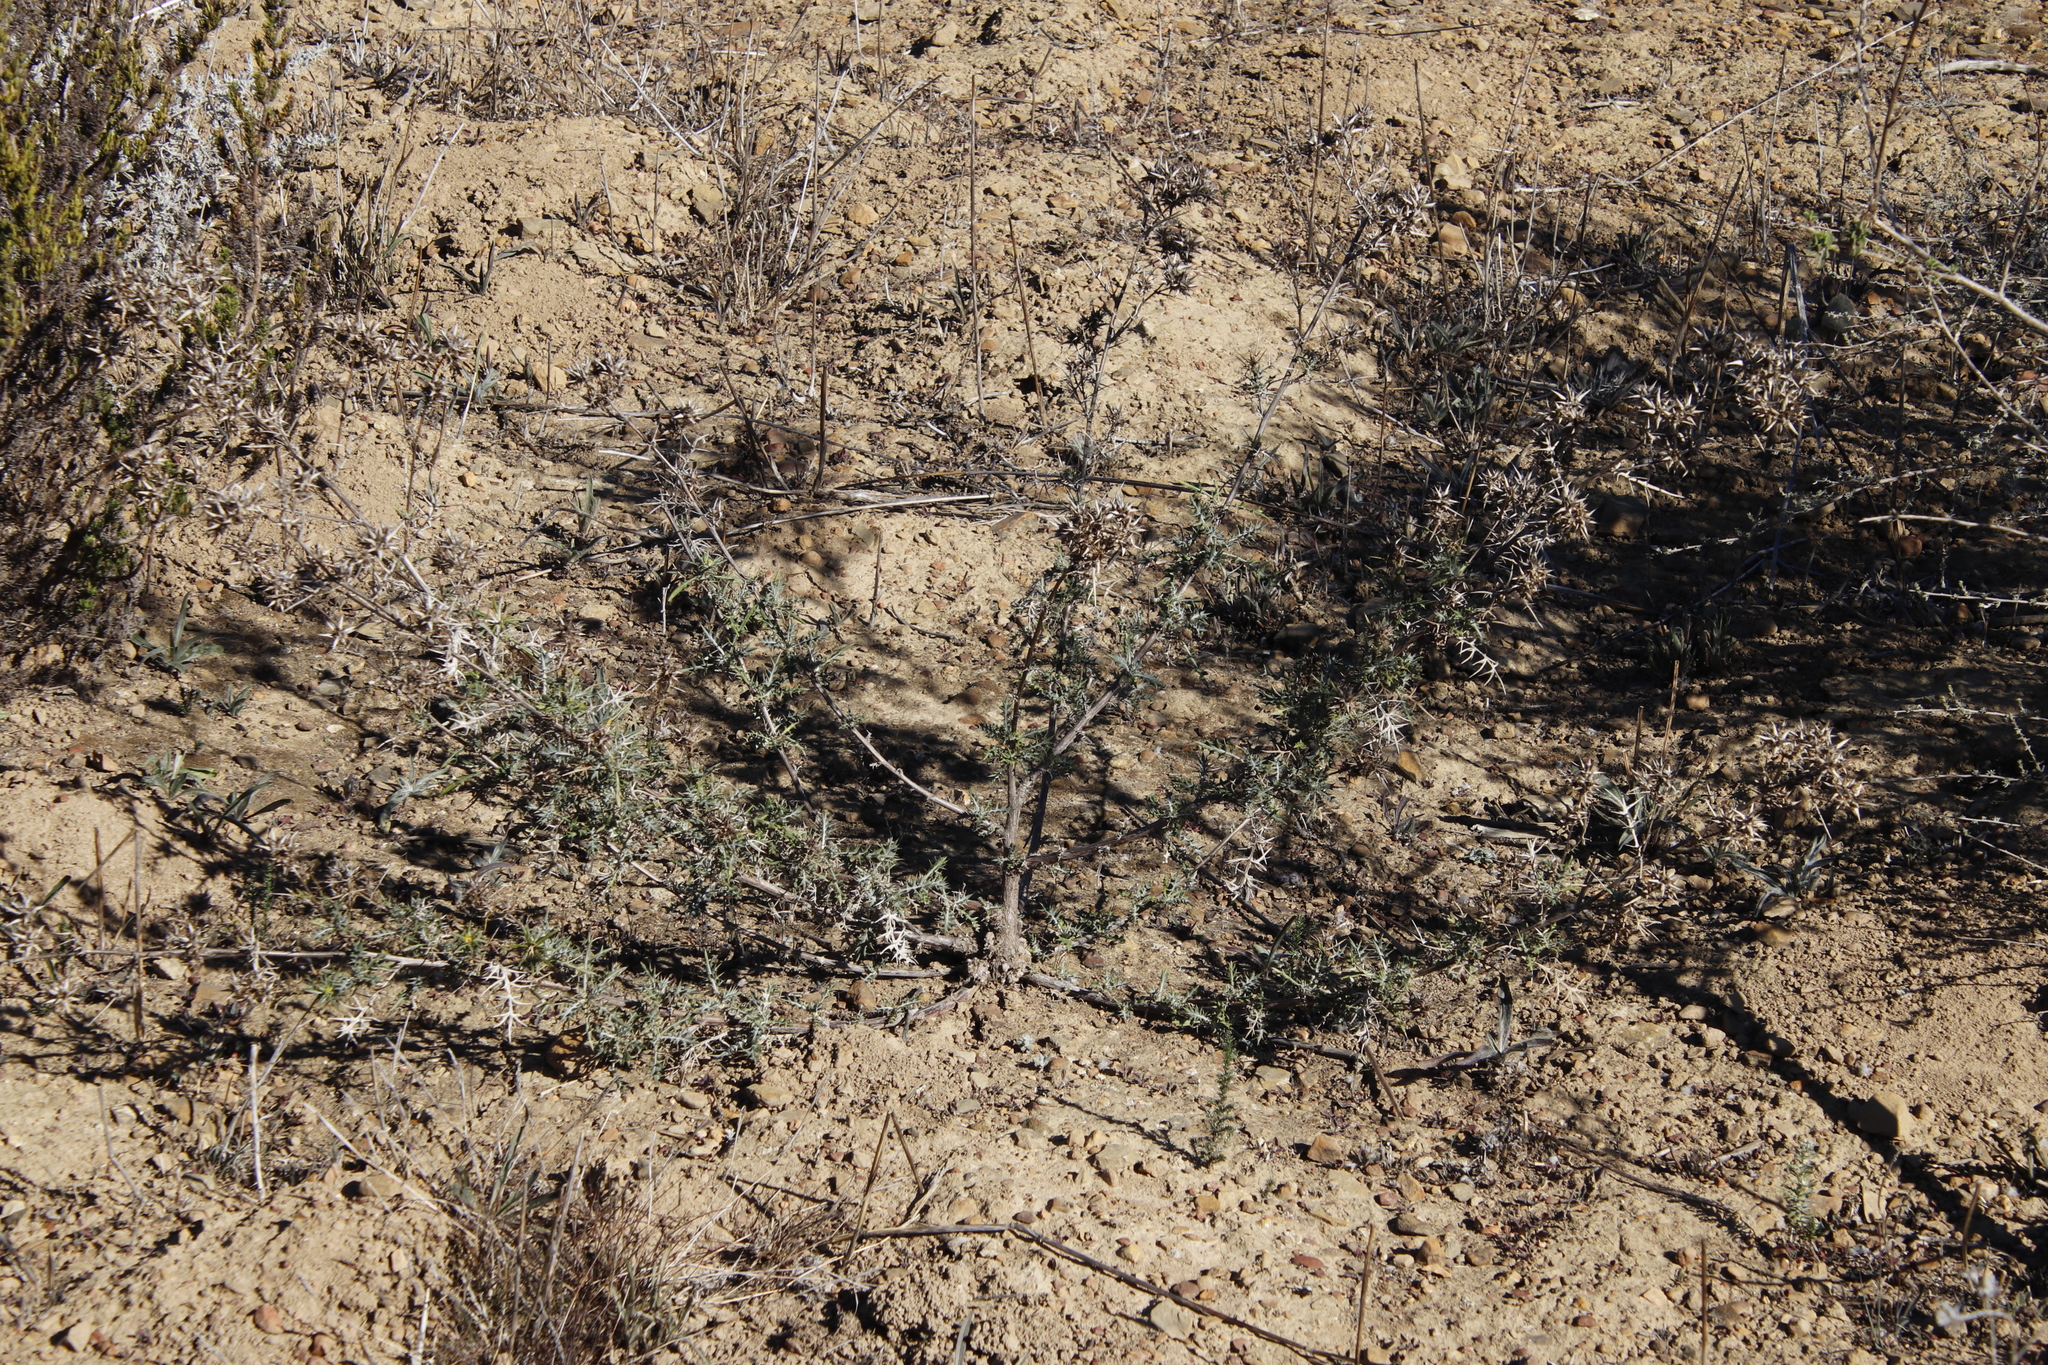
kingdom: Plantae
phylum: Tracheophyta
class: Magnoliopsida
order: Asterales
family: Asteraceae
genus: Berkheya
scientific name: Berkheya rigida
